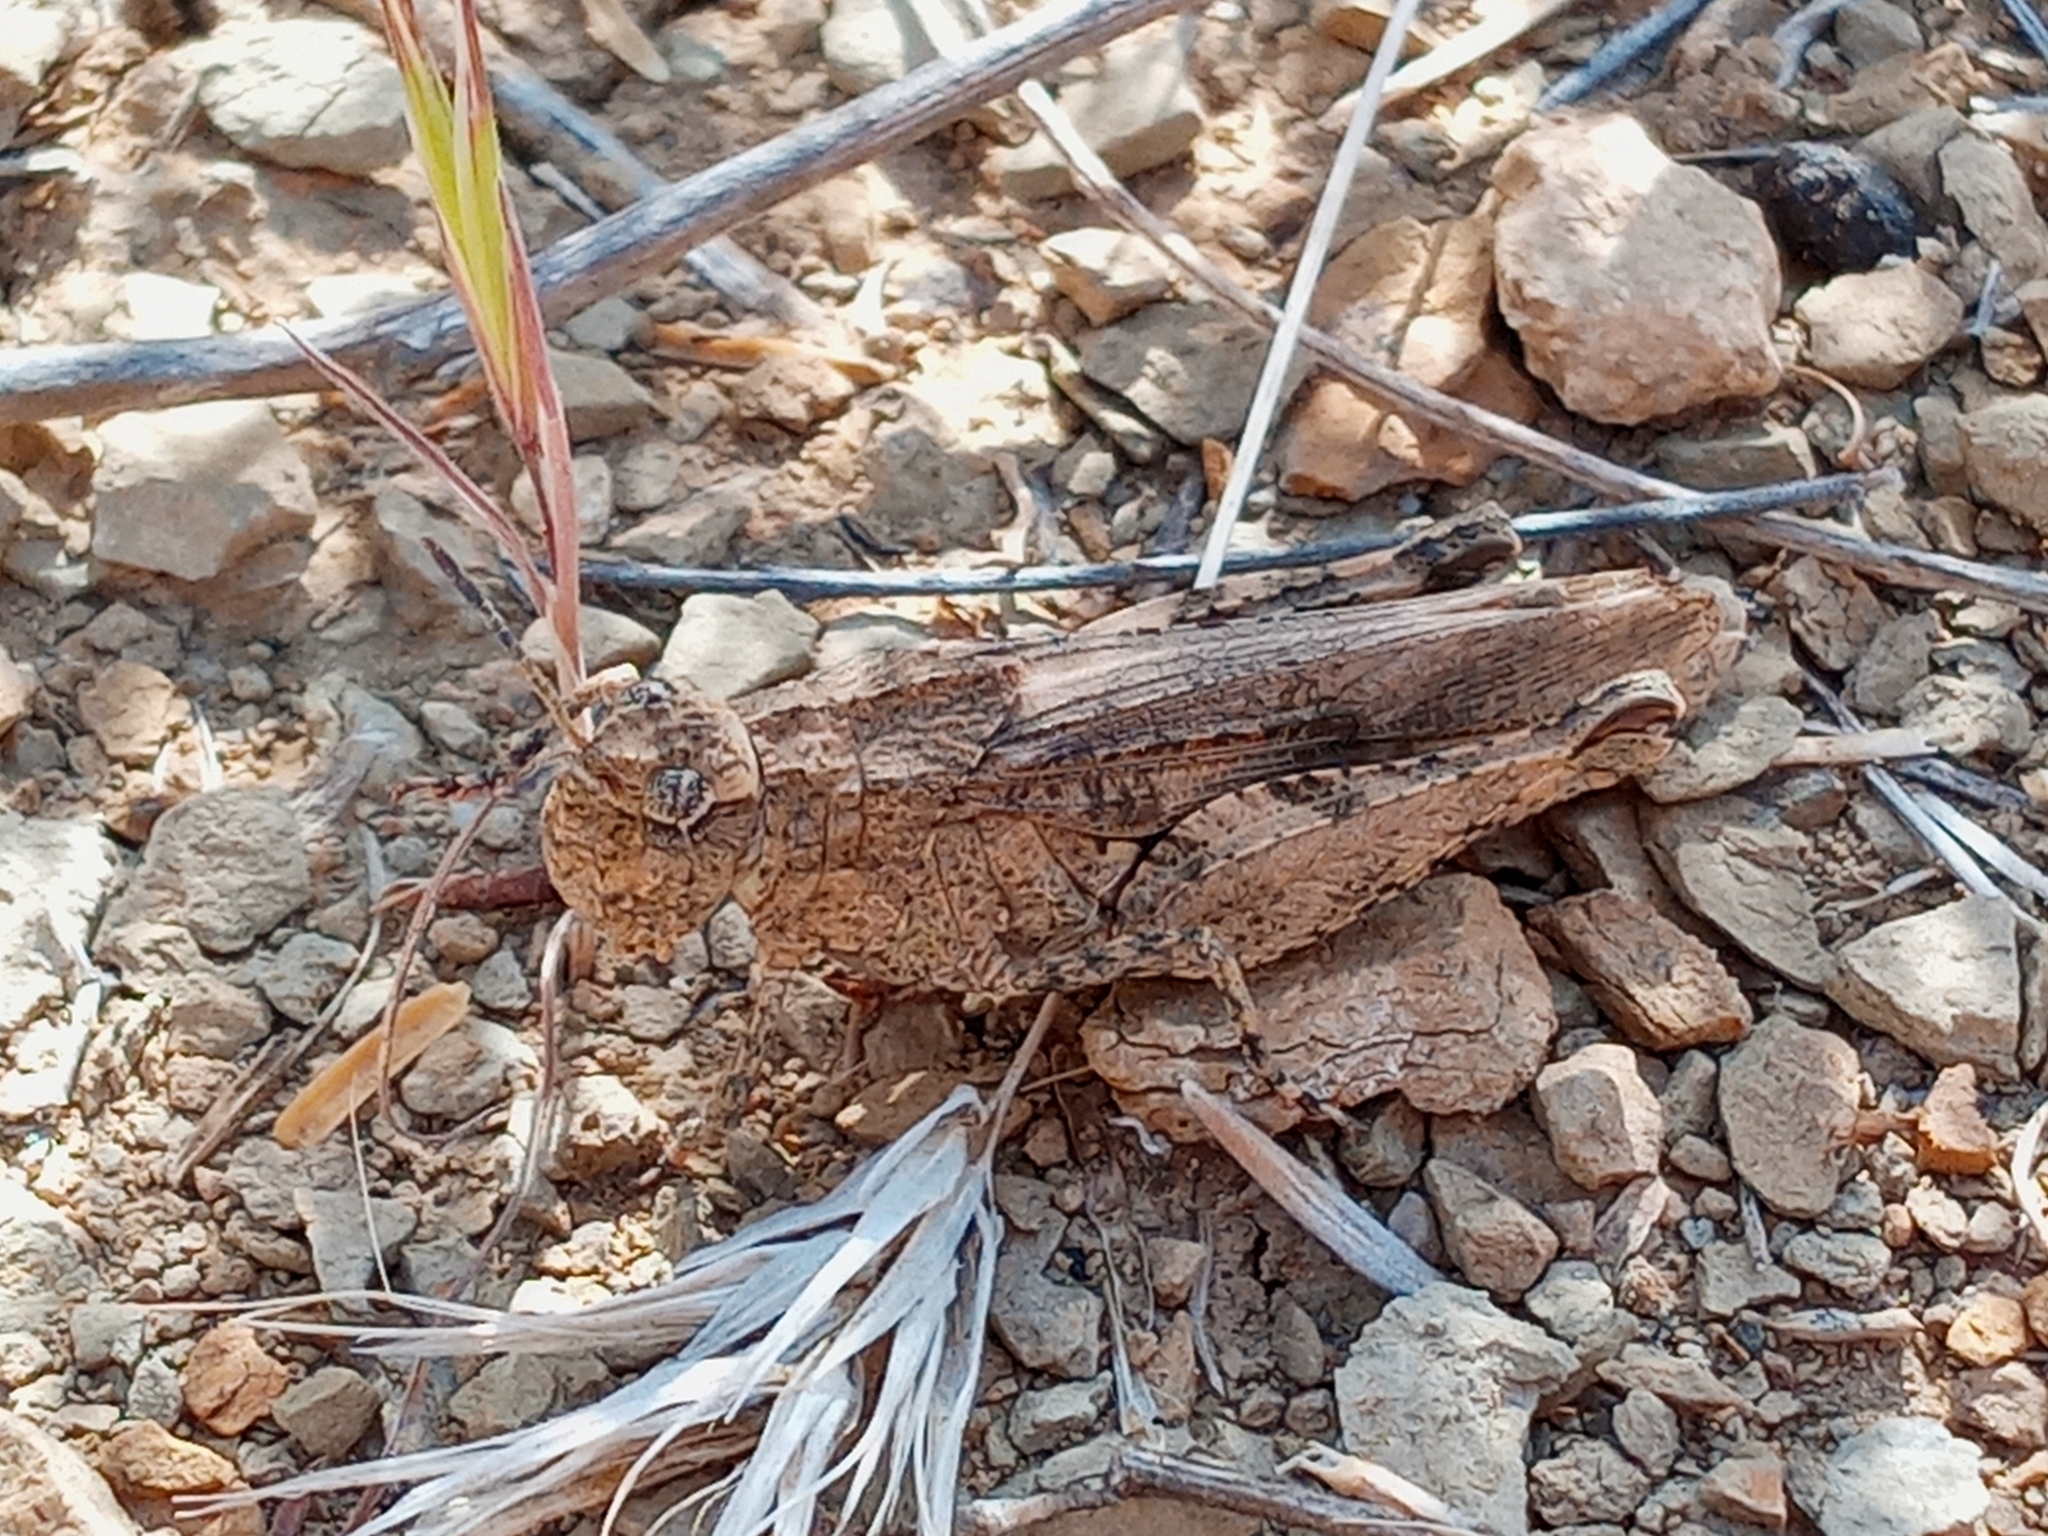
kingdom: Animalia
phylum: Arthropoda
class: Insecta
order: Orthoptera
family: Acrididae
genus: Chimarocephala
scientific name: Chimarocephala pacifica
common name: Painted meadow grasshopper
